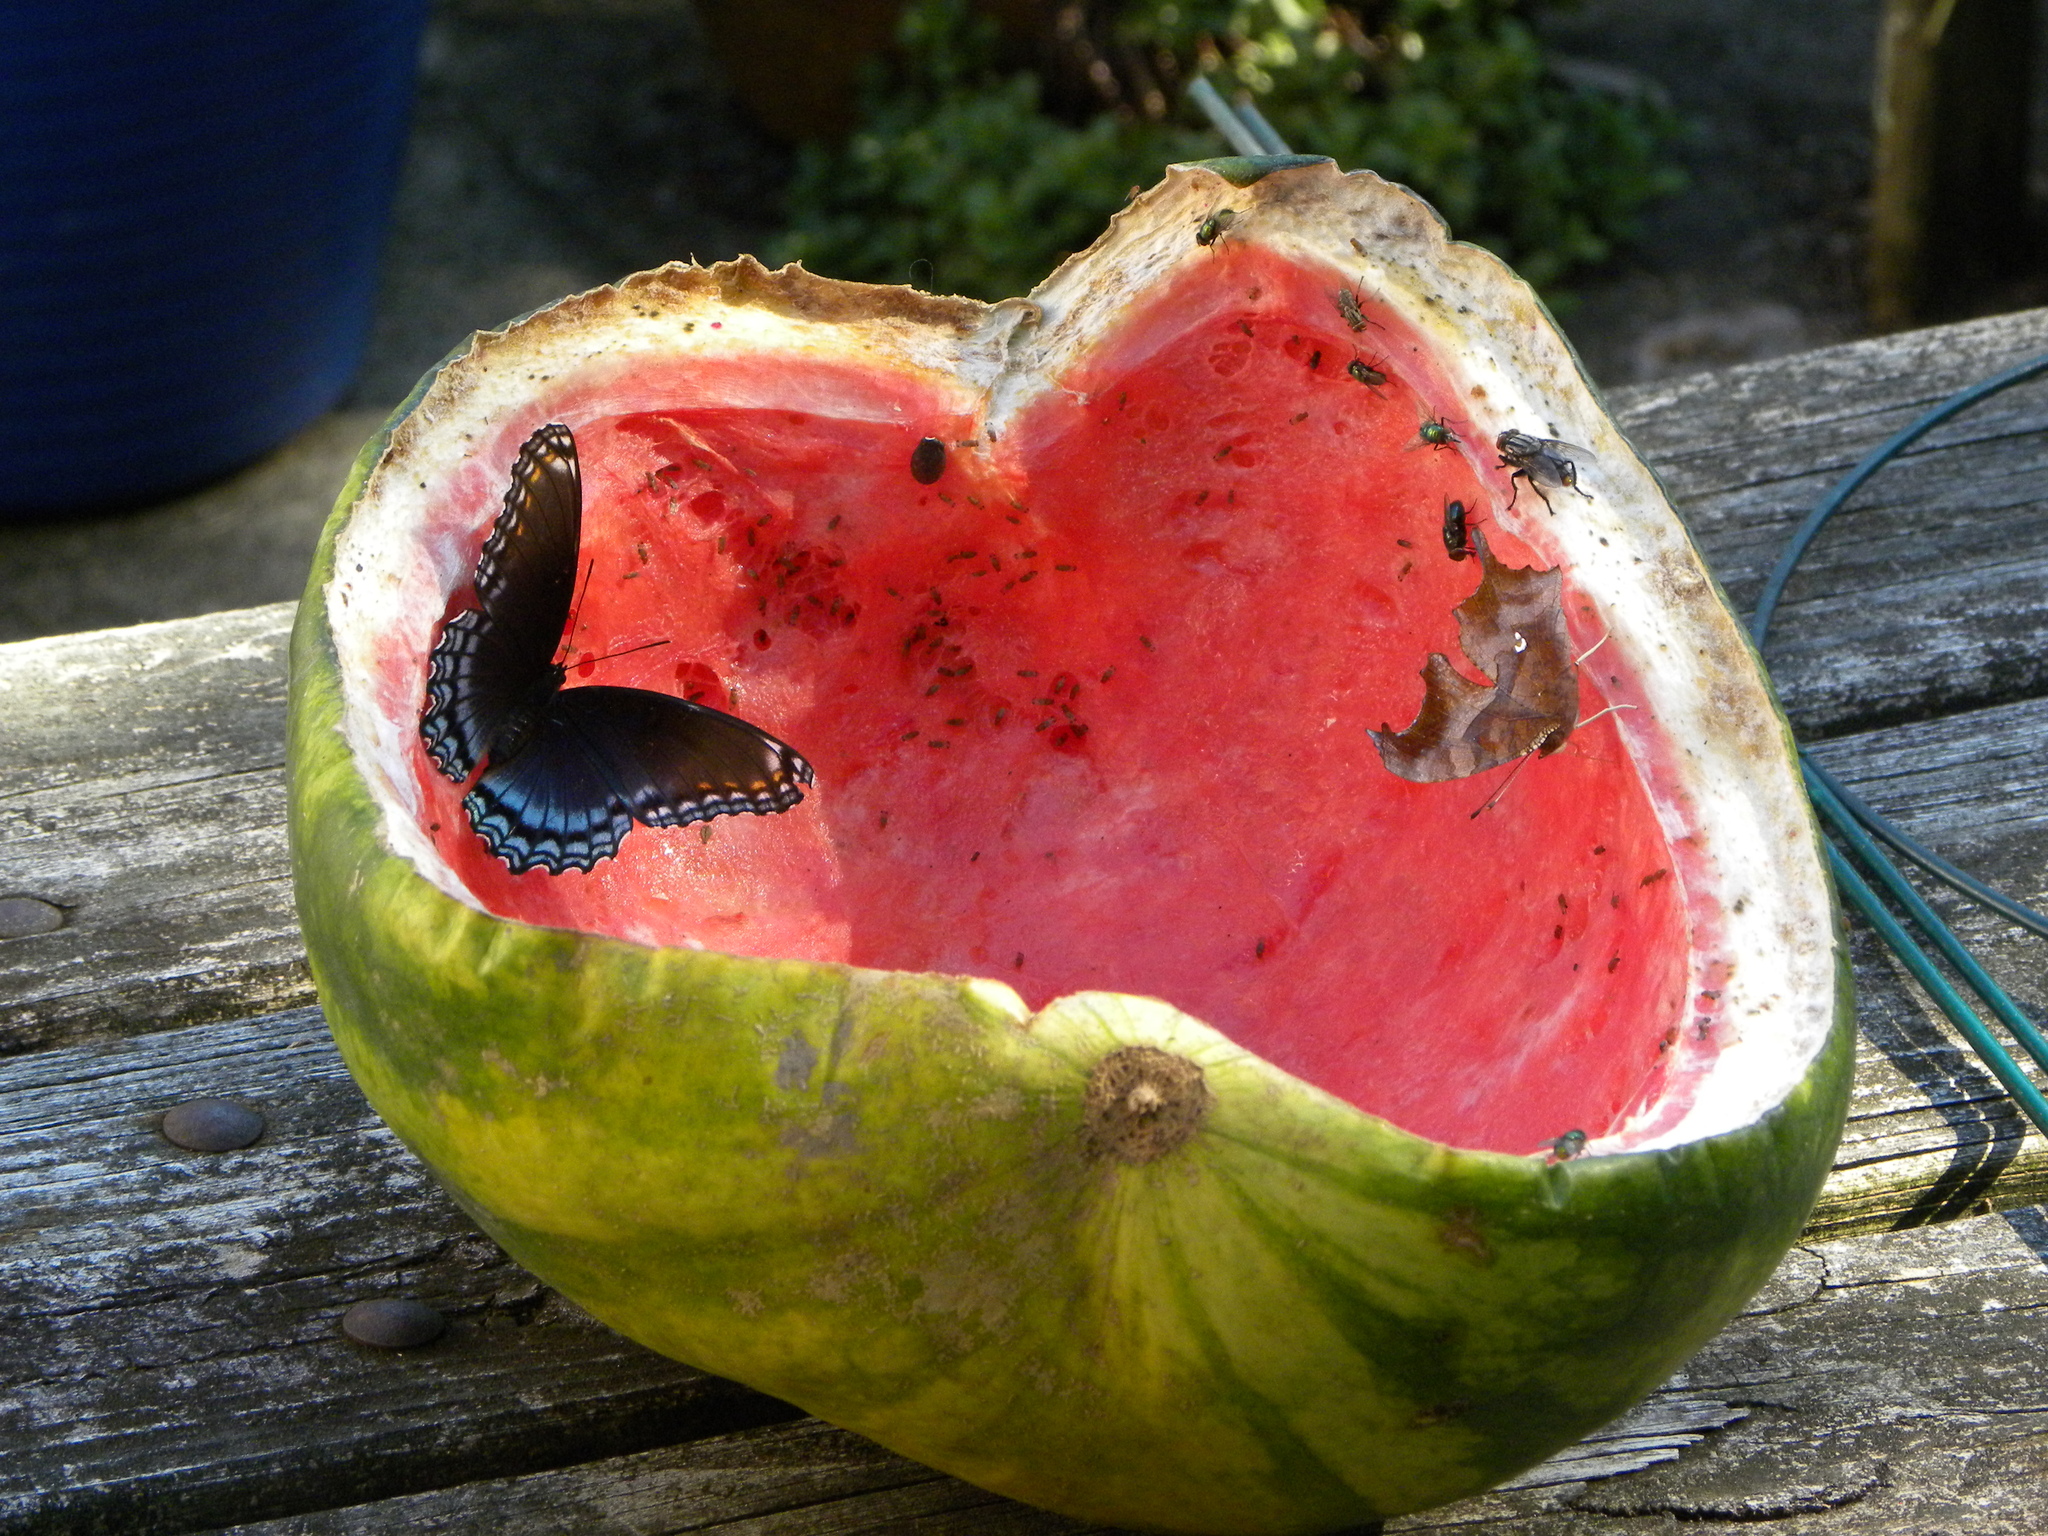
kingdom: Animalia
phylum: Arthropoda
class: Insecta
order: Lepidoptera
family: Nymphalidae
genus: Polygonia
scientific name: Polygonia interrogationis
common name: Question mark
